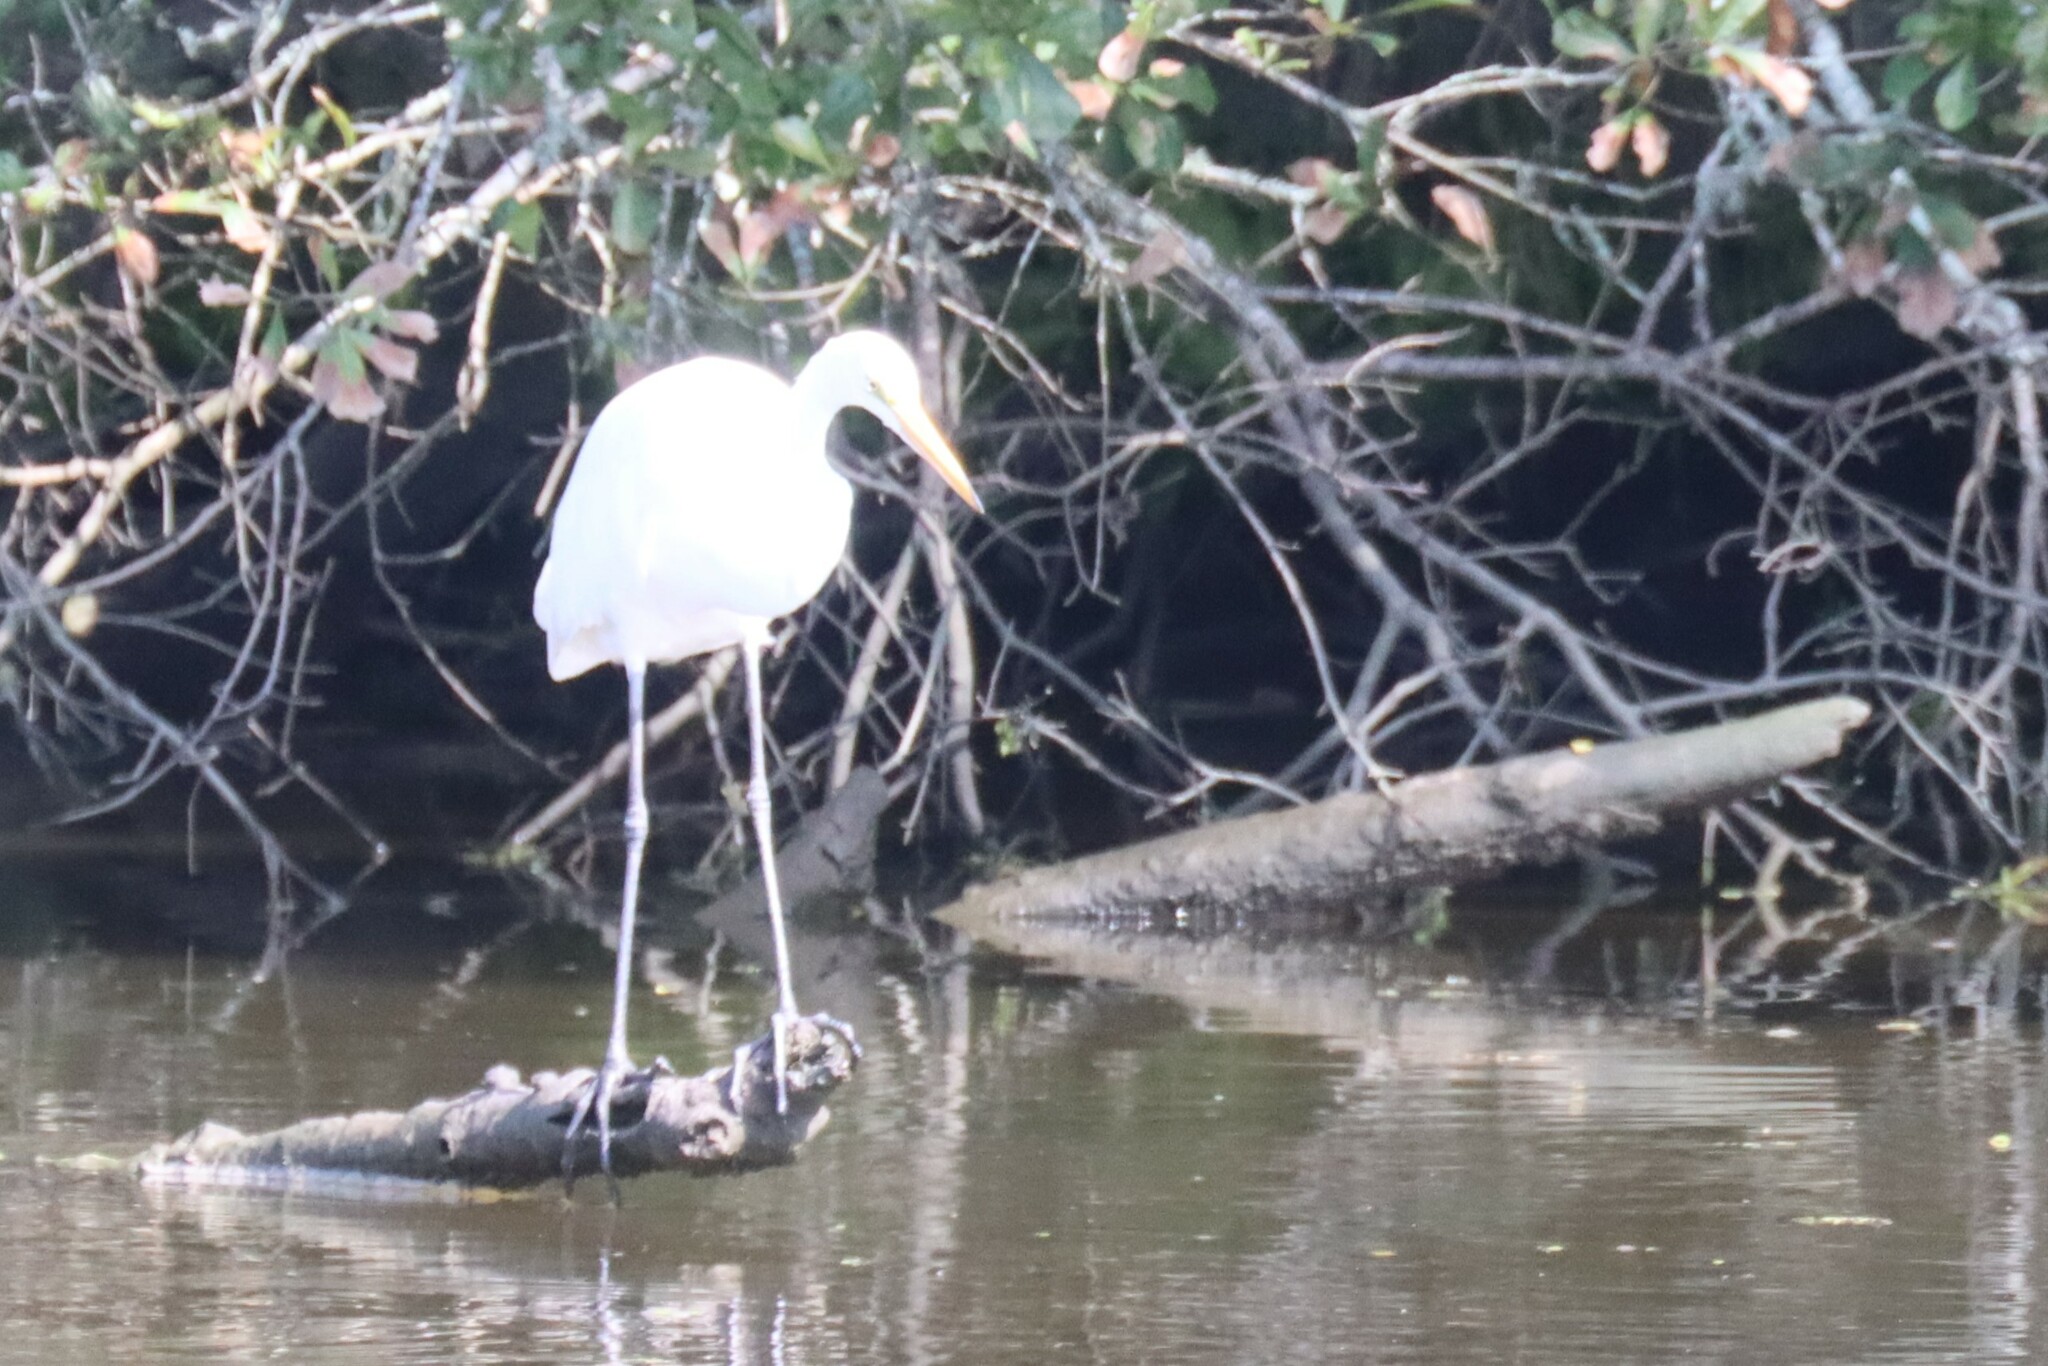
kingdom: Animalia
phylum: Chordata
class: Aves
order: Pelecaniformes
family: Ardeidae
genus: Ardea
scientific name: Ardea alba
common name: Great egret
